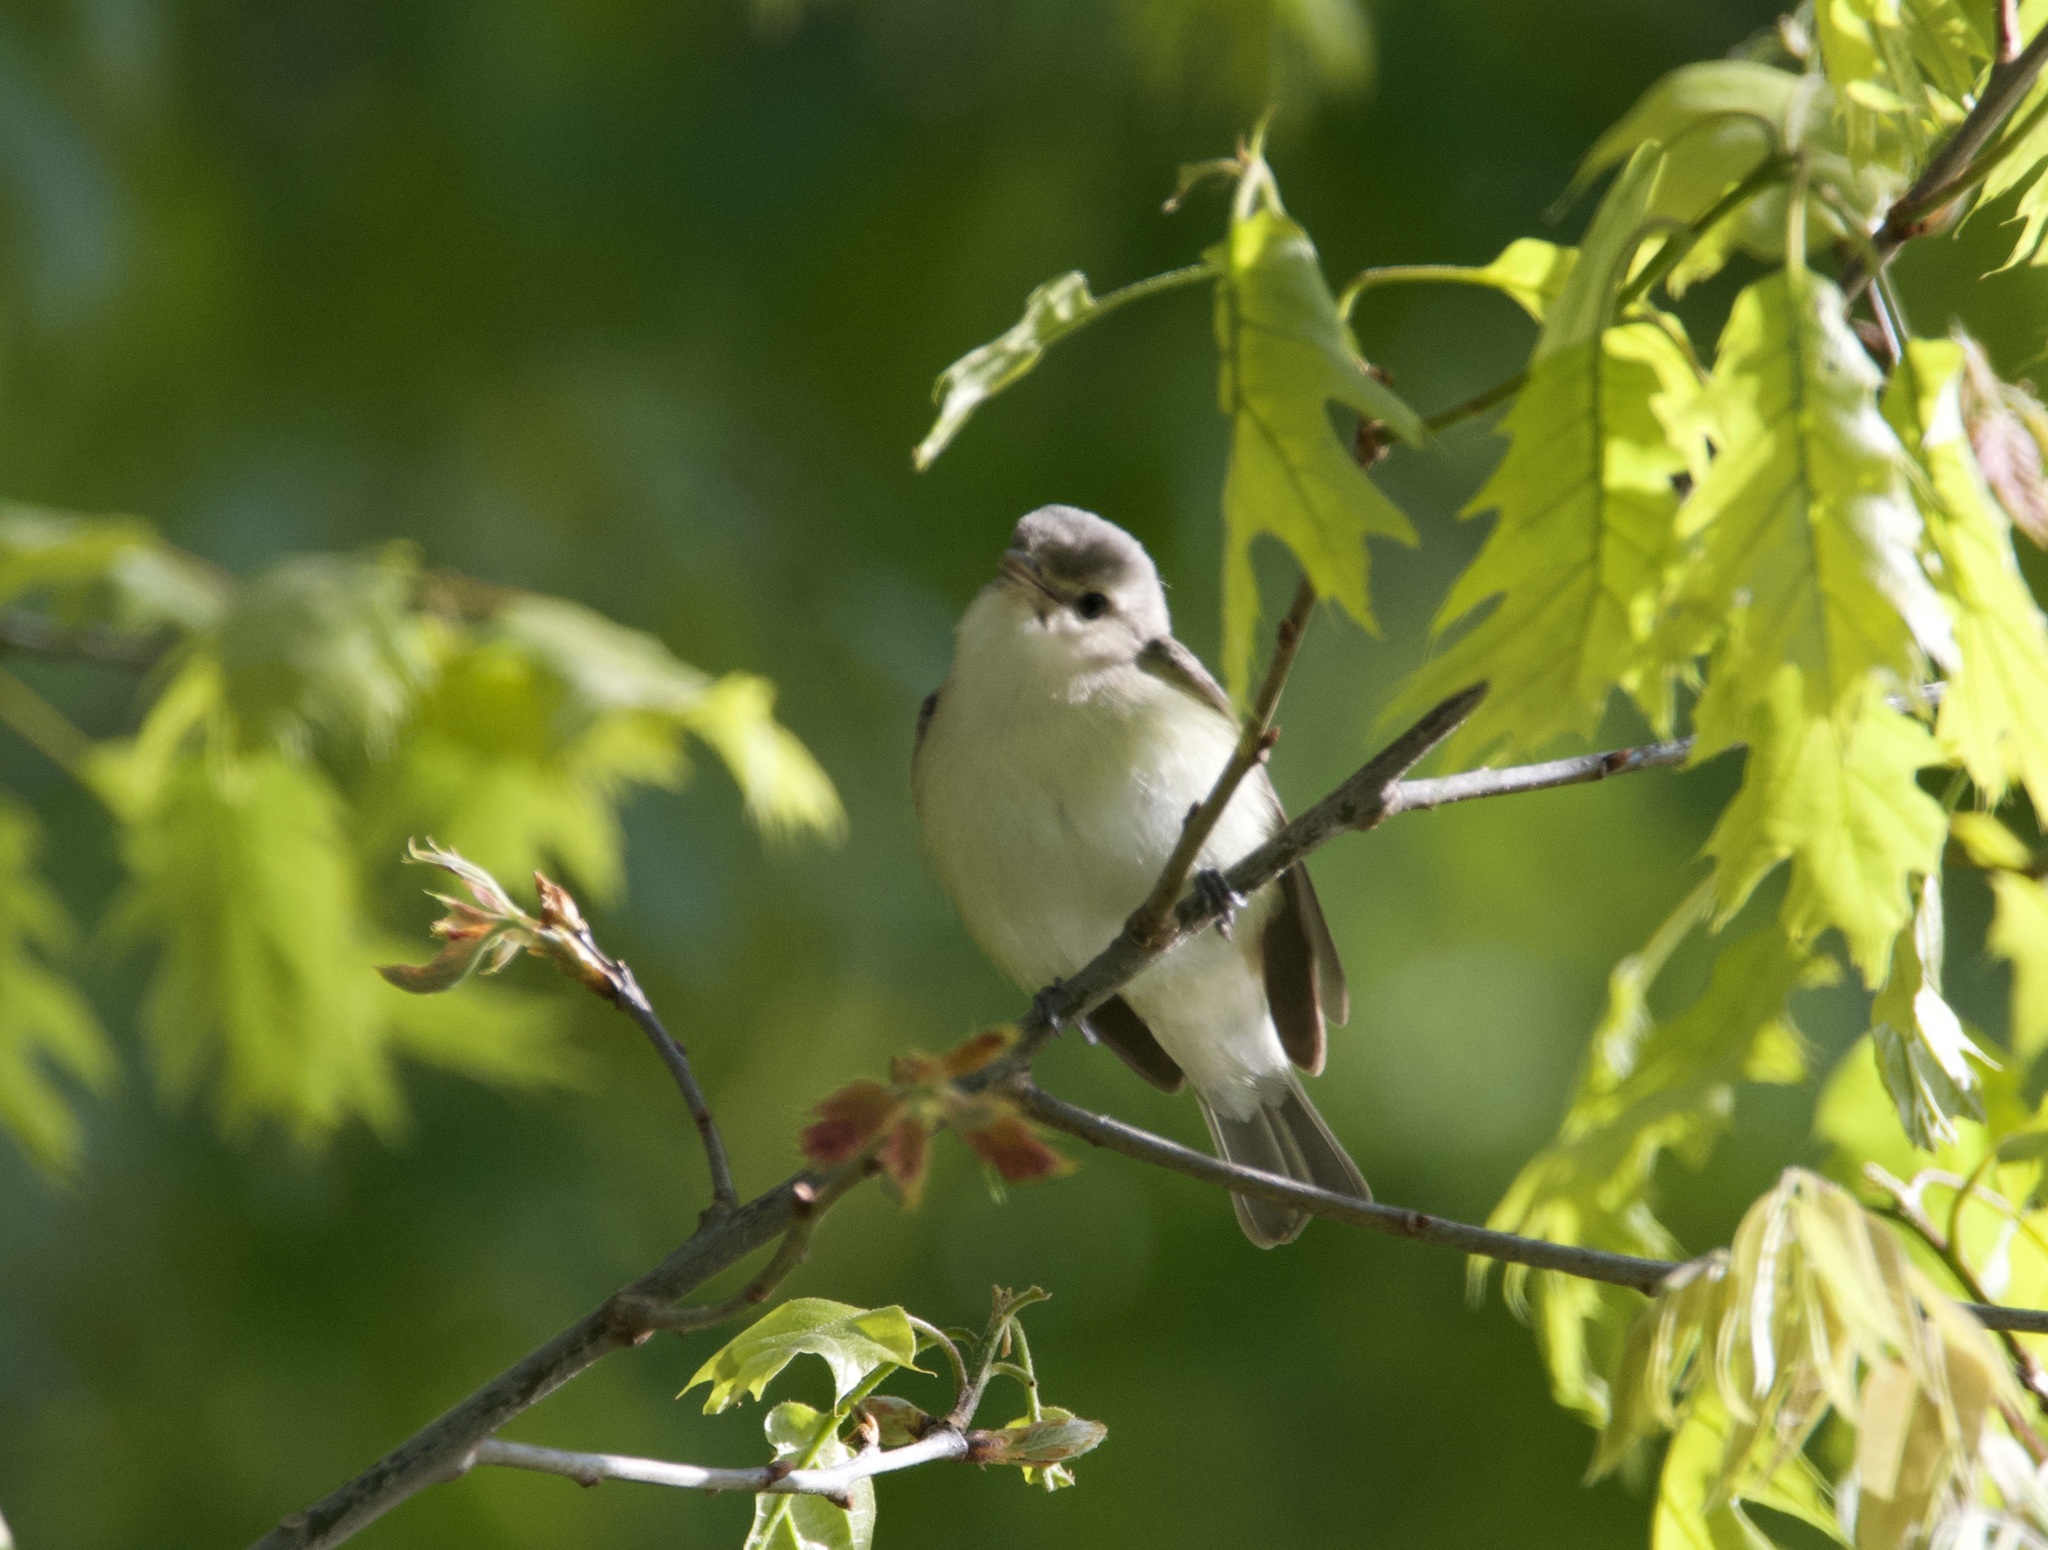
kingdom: Animalia
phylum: Chordata
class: Aves
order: Passeriformes
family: Vireonidae
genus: Vireo
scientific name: Vireo gilvus
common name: Warbling vireo
